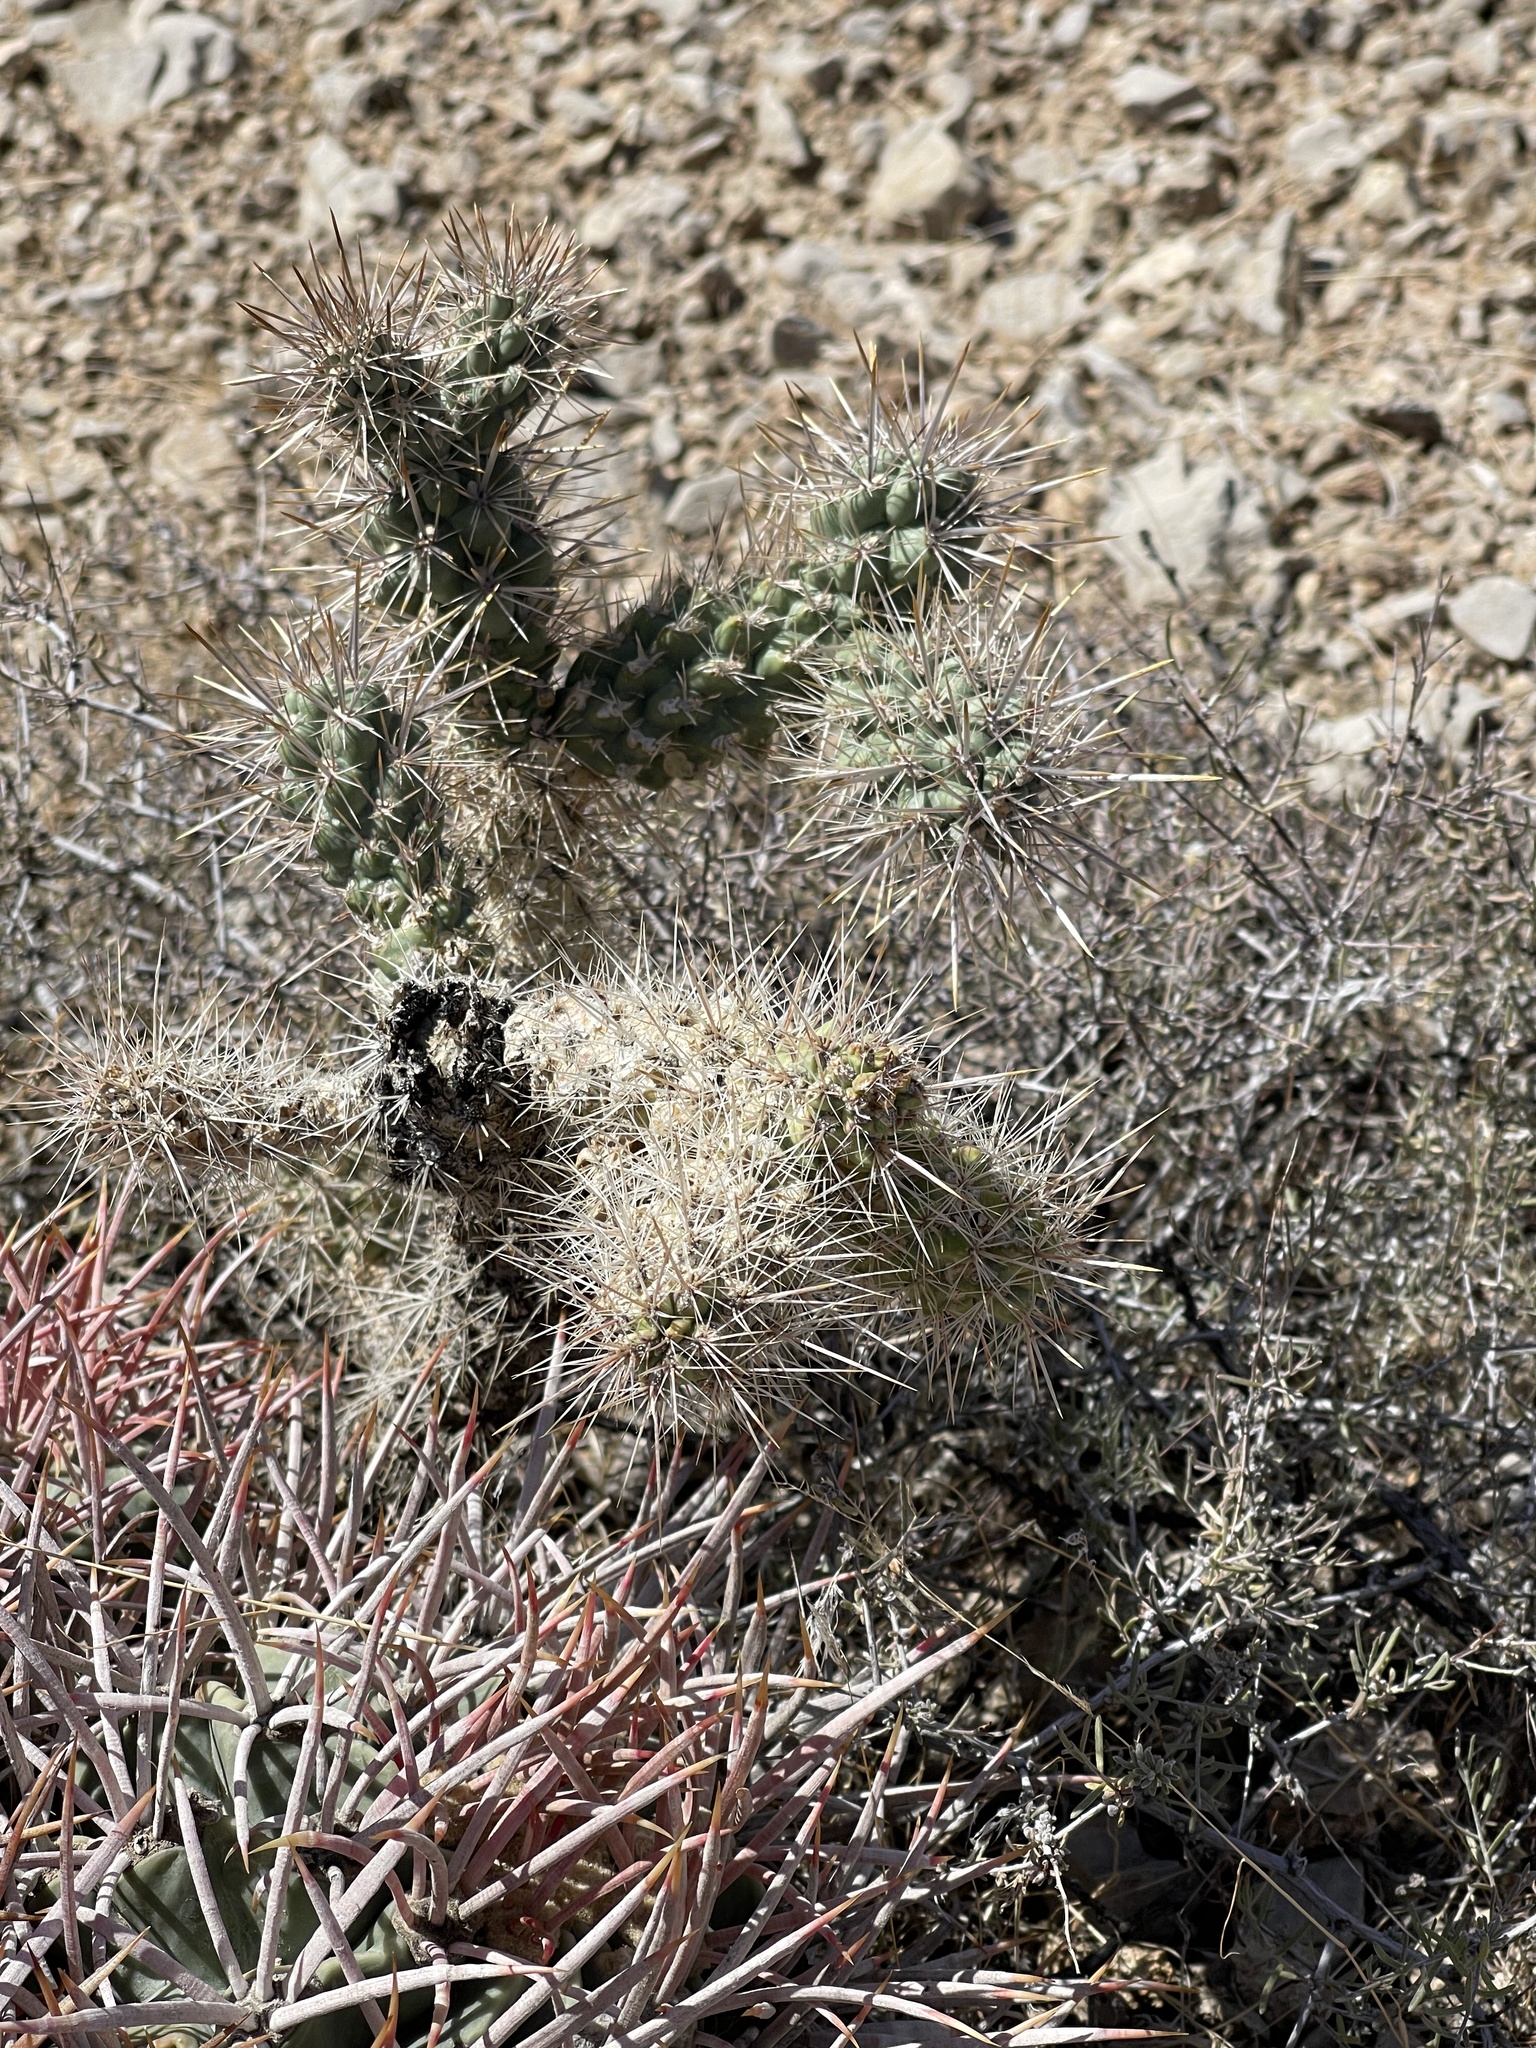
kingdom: Plantae
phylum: Tracheophyta
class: Magnoliopsida
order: Caryophyllales
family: Cactaceae
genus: Cylindropuntia
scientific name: Cylindropuntia echinocarpa
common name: Ground cholla
